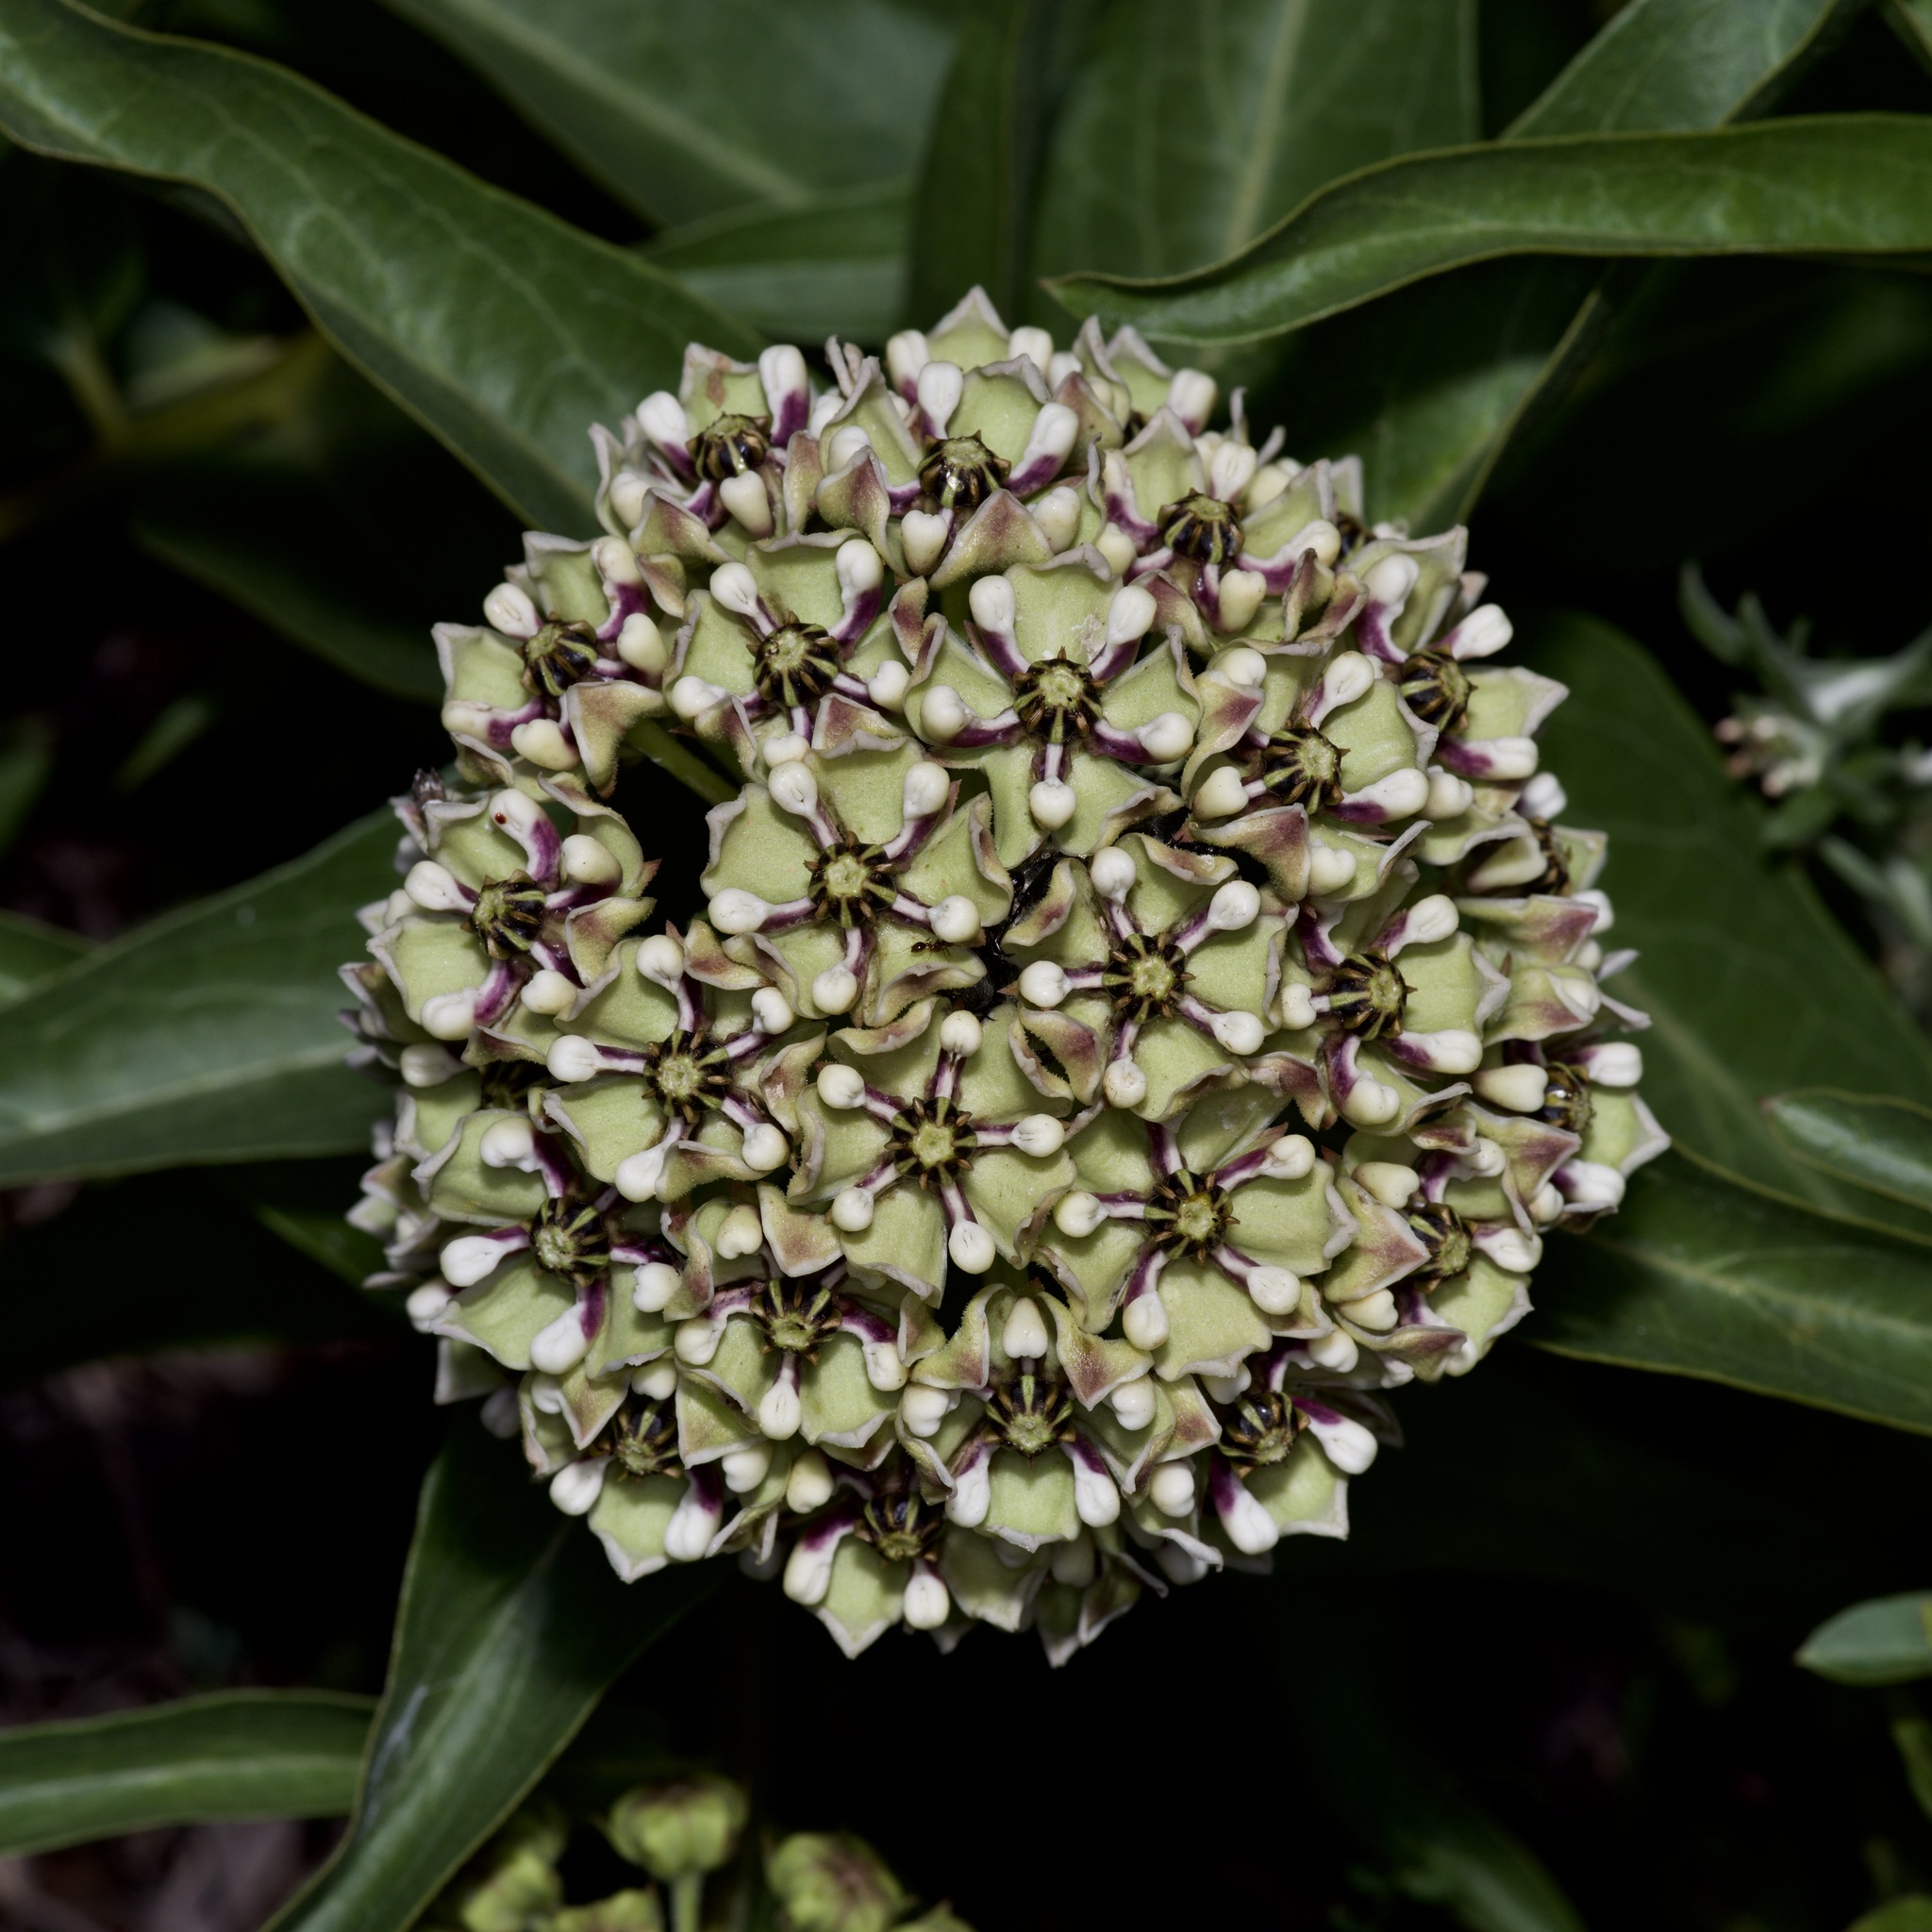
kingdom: Plantae
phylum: Tracheophyta
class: Magnoliopsida
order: Gentianales
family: Apocynaceae
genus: Asclepias
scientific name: Asclepias asperula
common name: Antelope horns
